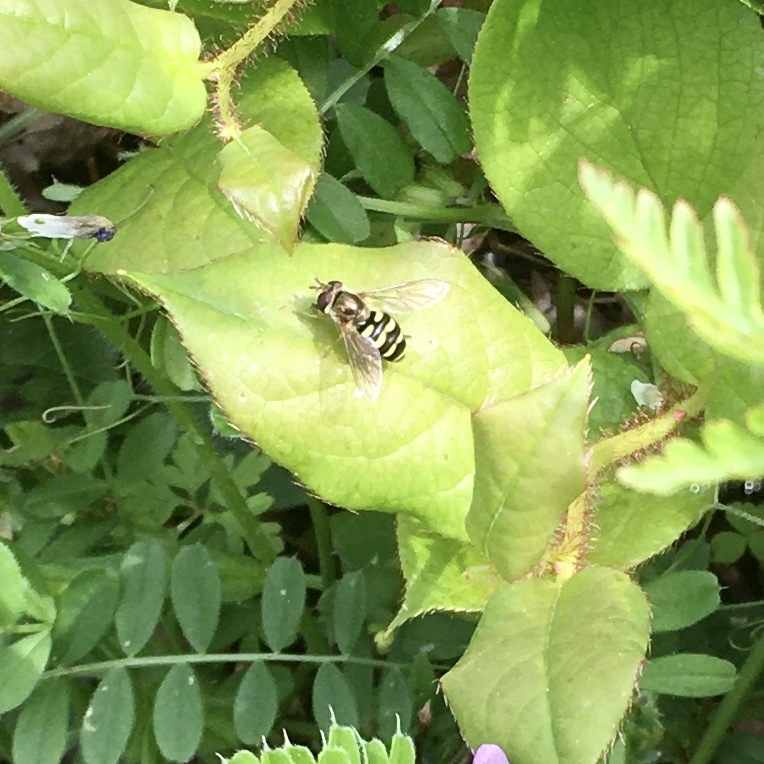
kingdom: Animalia
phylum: Arthropoda
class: Insecta
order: Diptera
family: Syrphidae
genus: Eupeodes
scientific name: Eupeodes fumipennis
